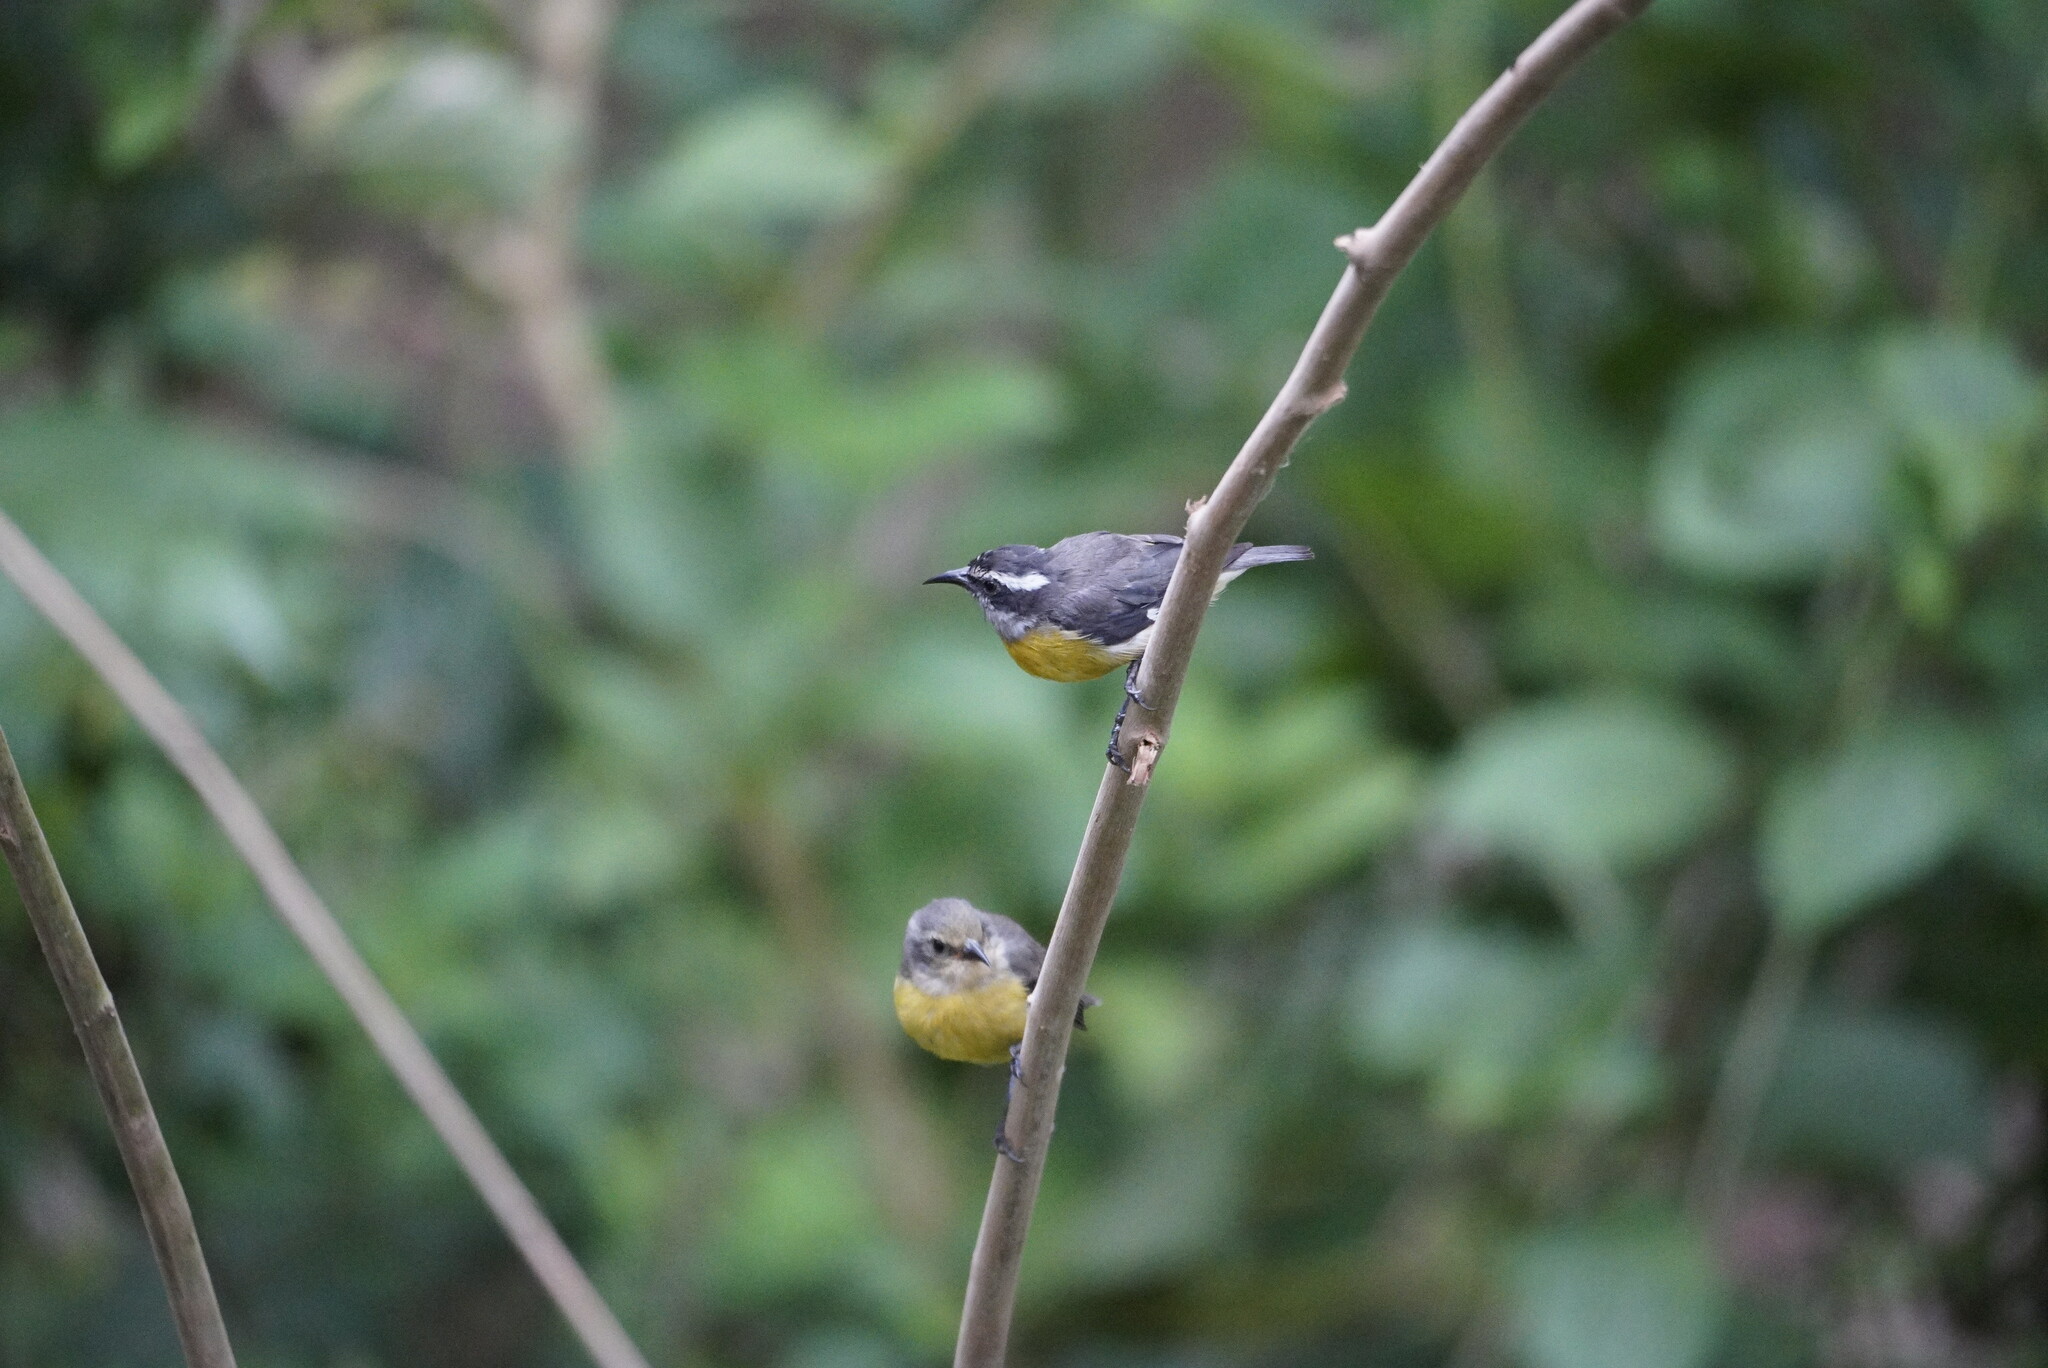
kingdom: Animalia
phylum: Chordata
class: Aves
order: Passeriformes
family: Thraupidae
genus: Coereba
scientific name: Coereba flaveola
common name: Bananaquit
